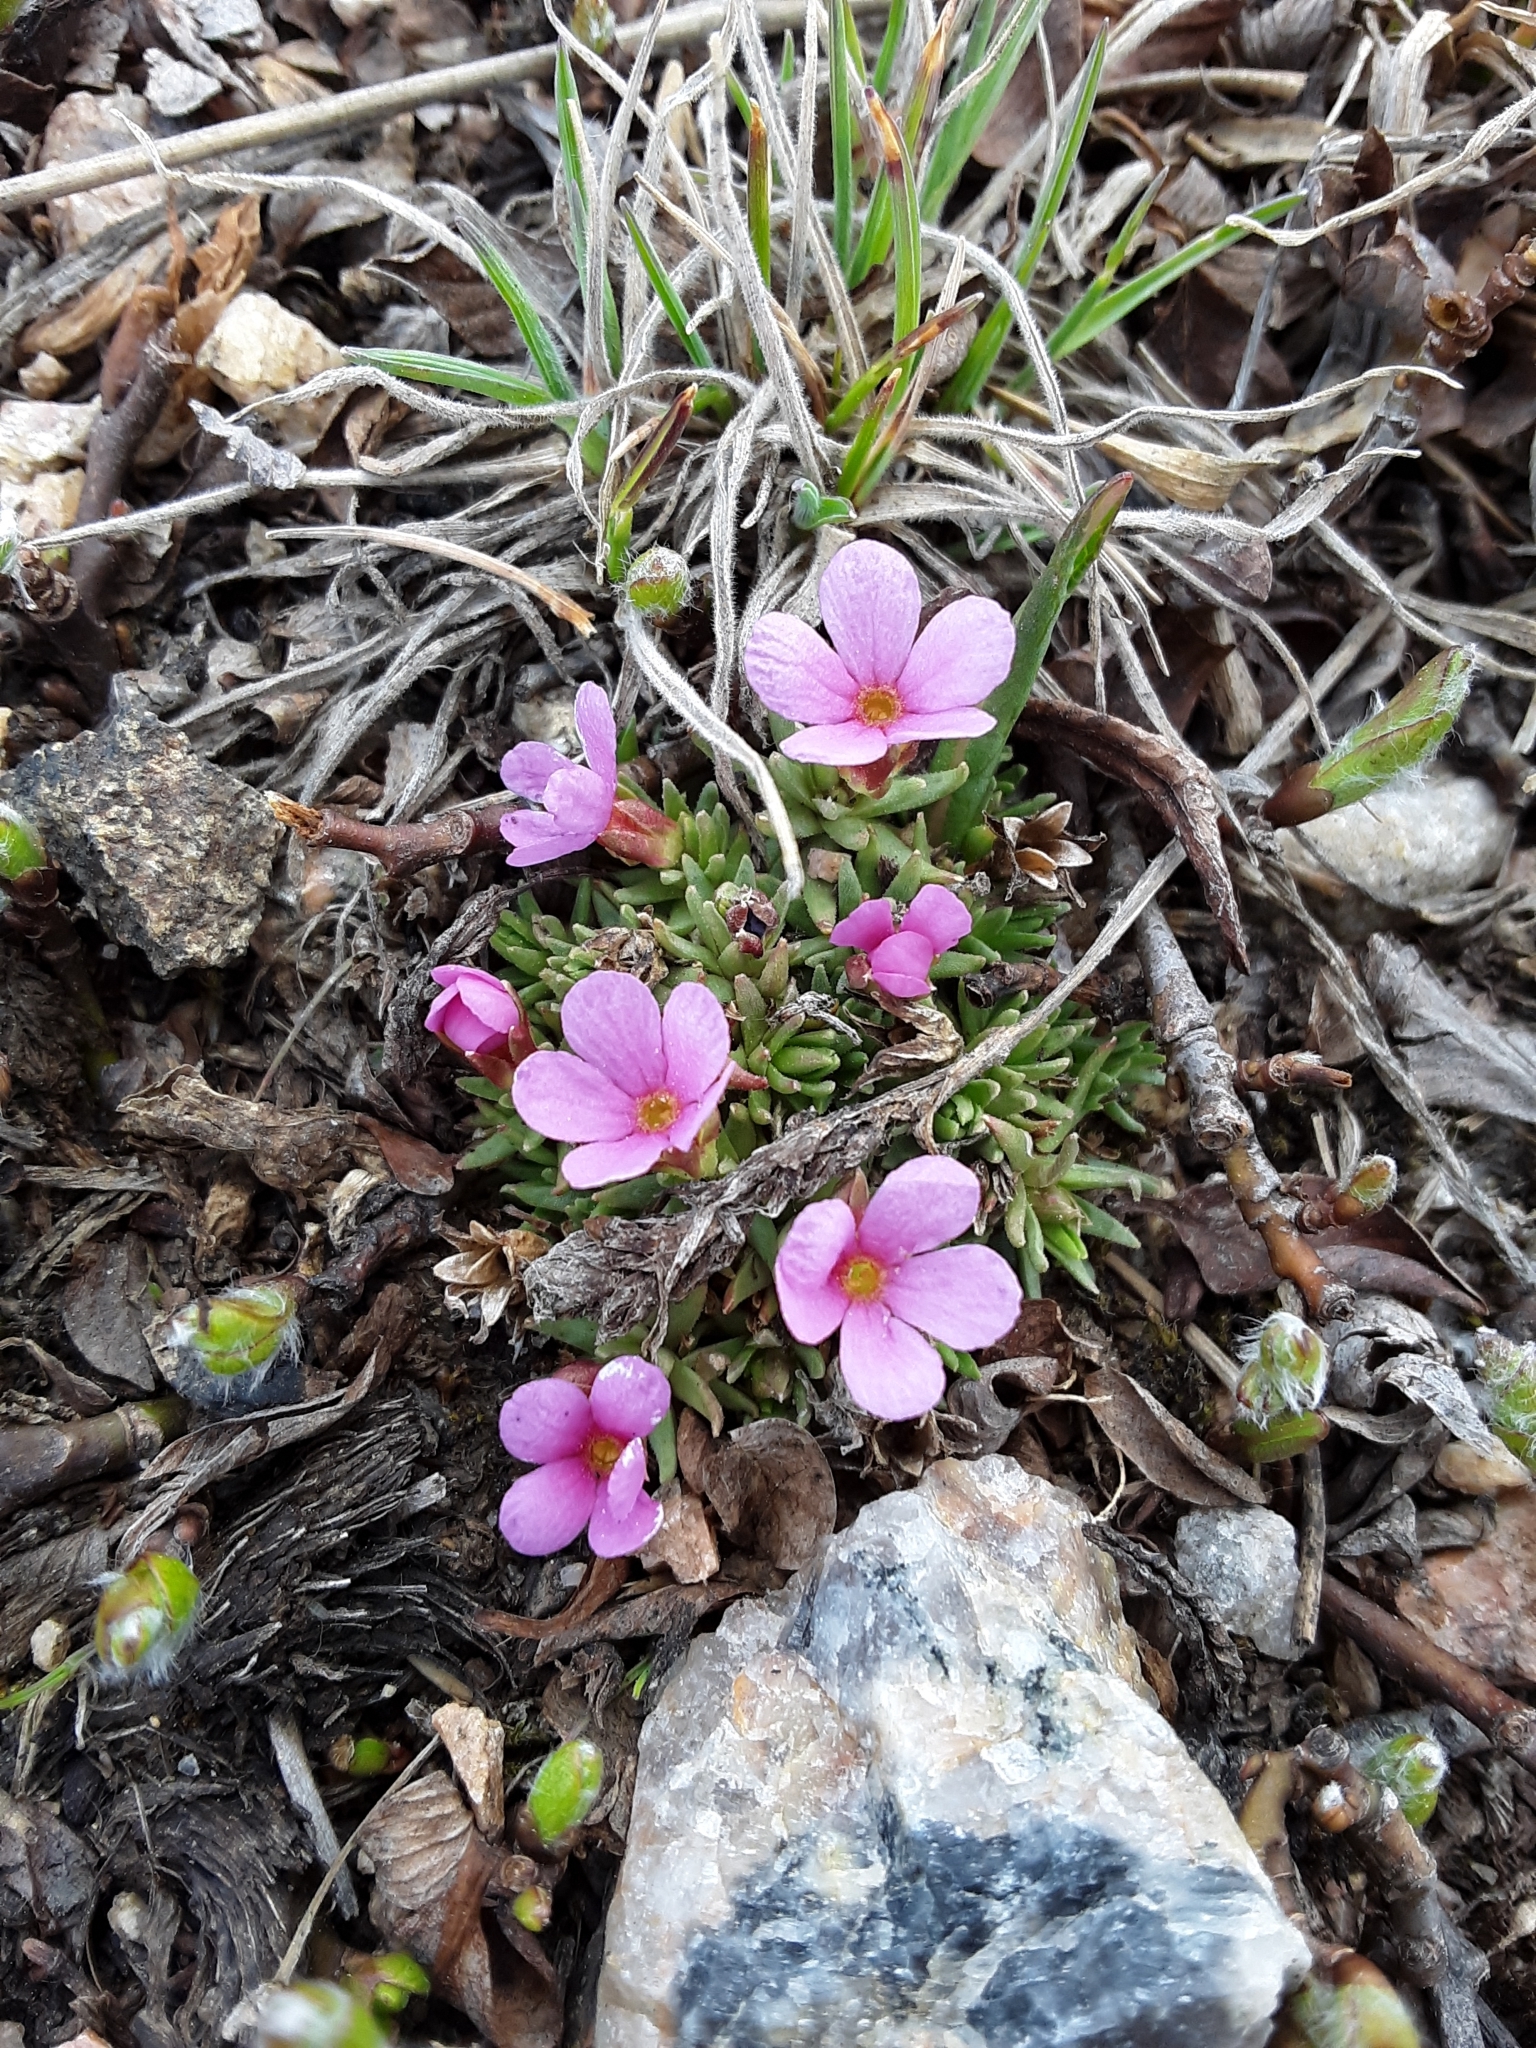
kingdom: Plantae
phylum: Tracheophyta
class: Magnoliopsida
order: Ericales
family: Primulaceae
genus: Androsace
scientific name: Androsace montana
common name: Rocky mountain dwarf-primrose
